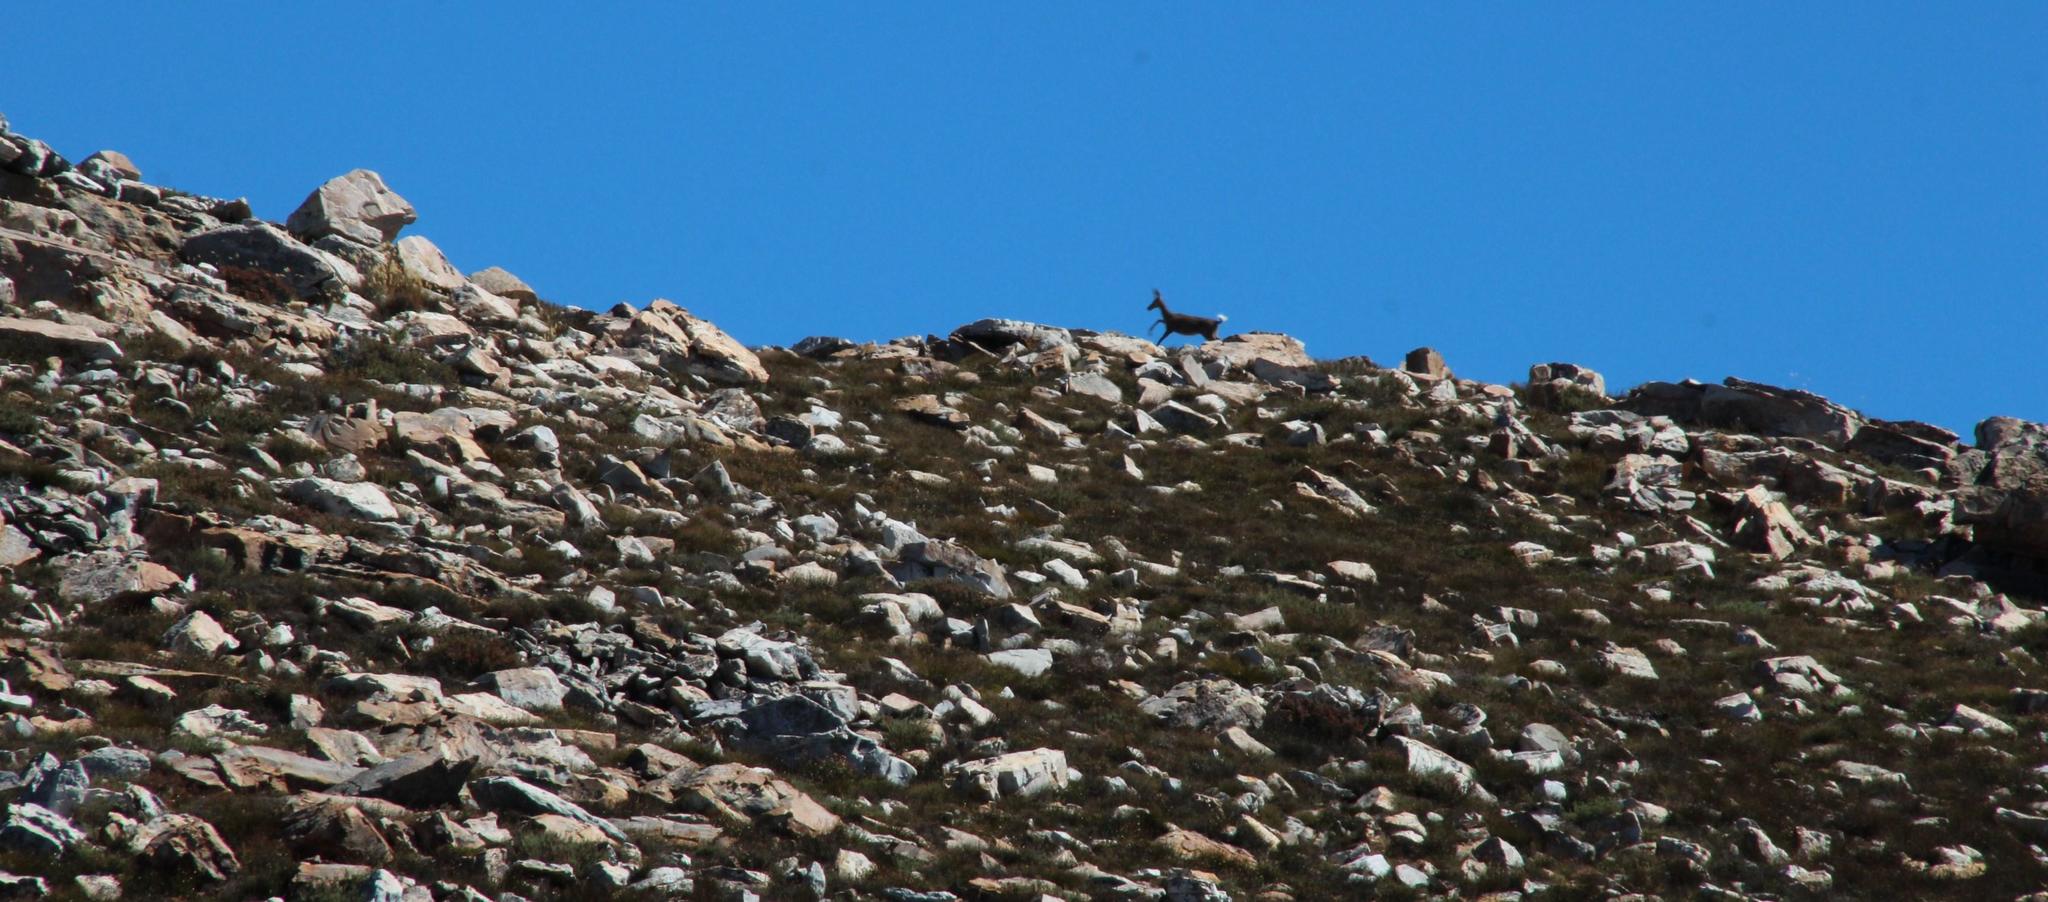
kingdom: Animalia
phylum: Chordata
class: Mammalia
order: Artiodactyla
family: Bovidae
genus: Pelea
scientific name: Pelea capreolus
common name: Common rhebok
